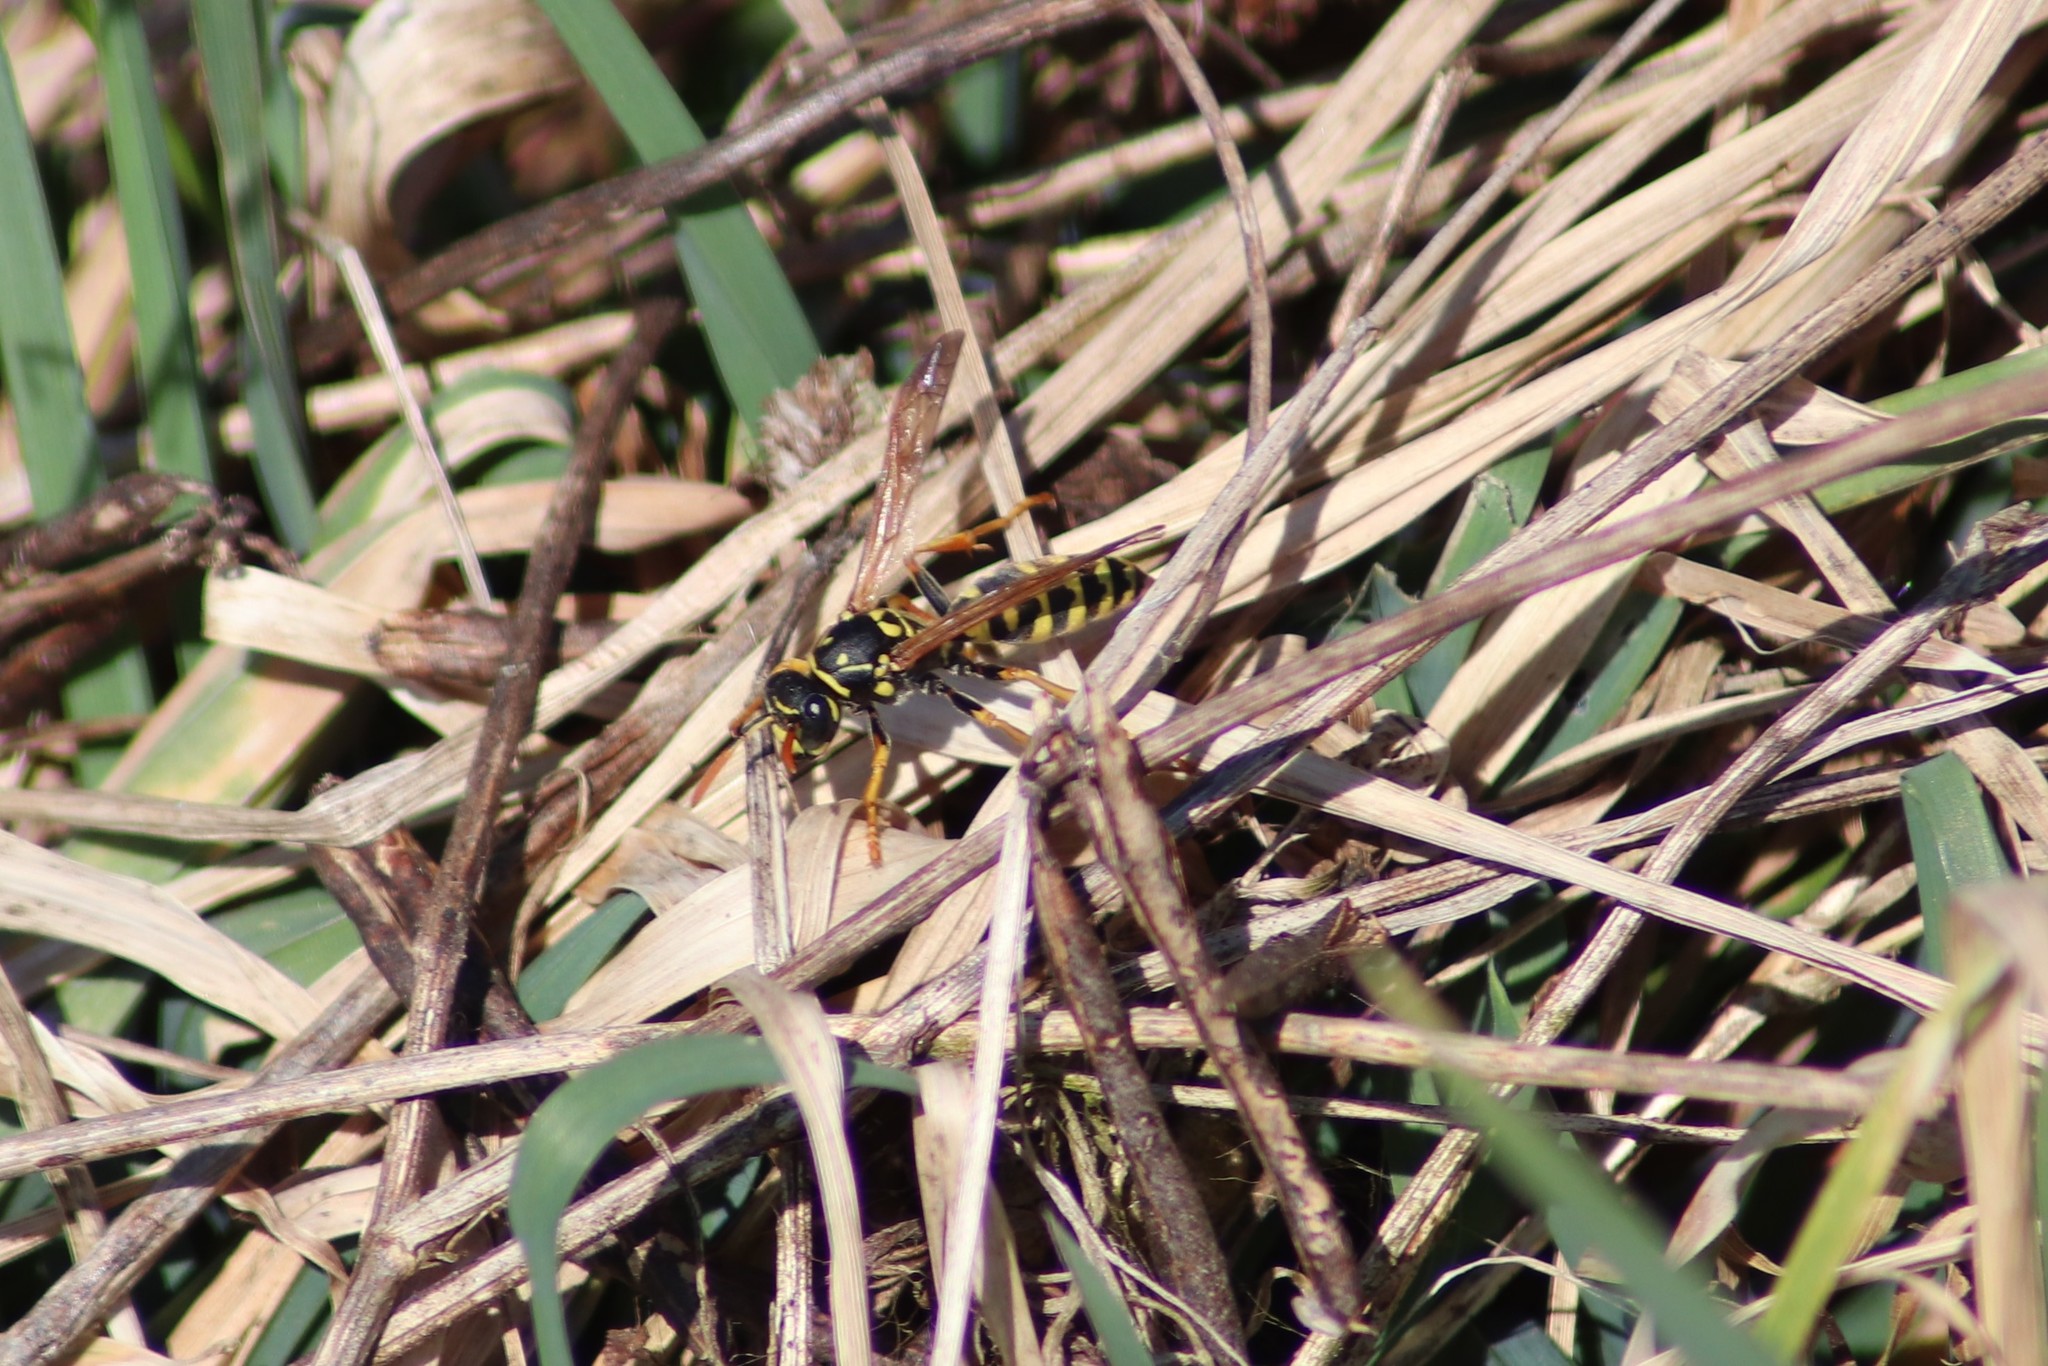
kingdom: Animalia
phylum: Arthropoda
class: Insecta
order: Hymenoptera
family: Eumenidae
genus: Polistes
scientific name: Polistes dominula
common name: Paper wasp
